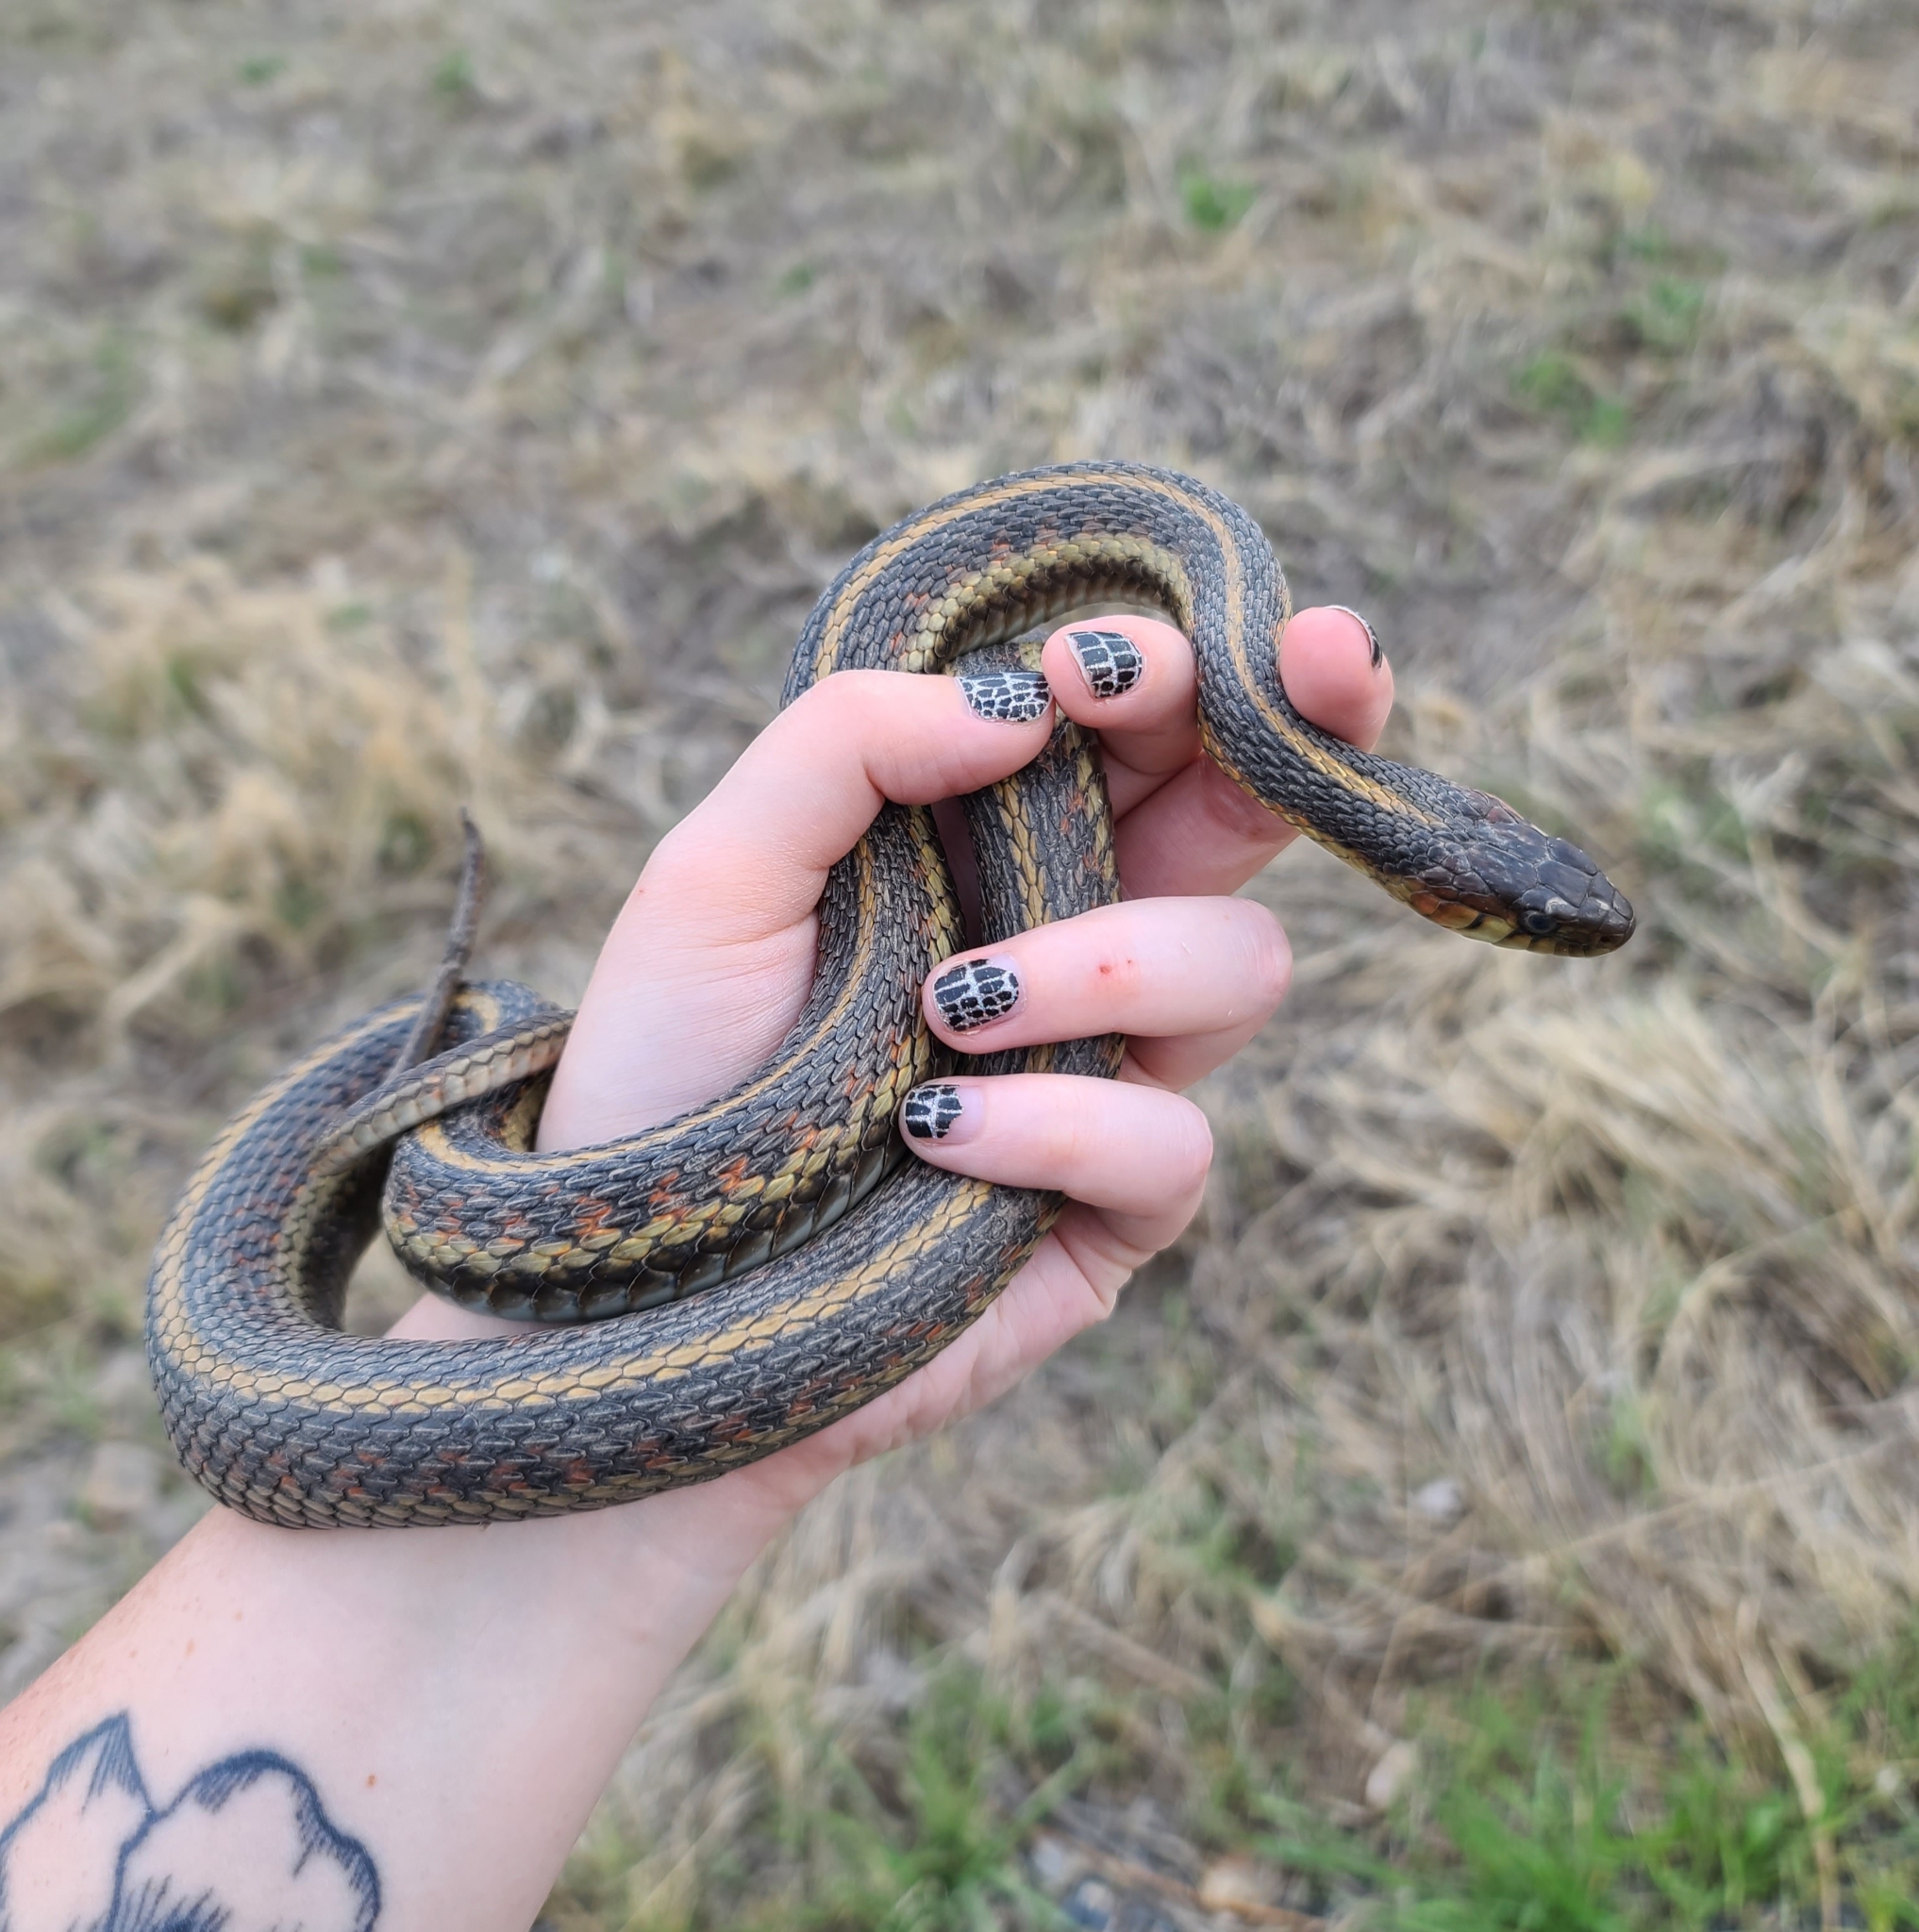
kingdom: Animalia
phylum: Chordata
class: Squamata
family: Colubridae
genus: Thamnophis
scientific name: Thamnophis sirtalis
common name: Common garter snake
